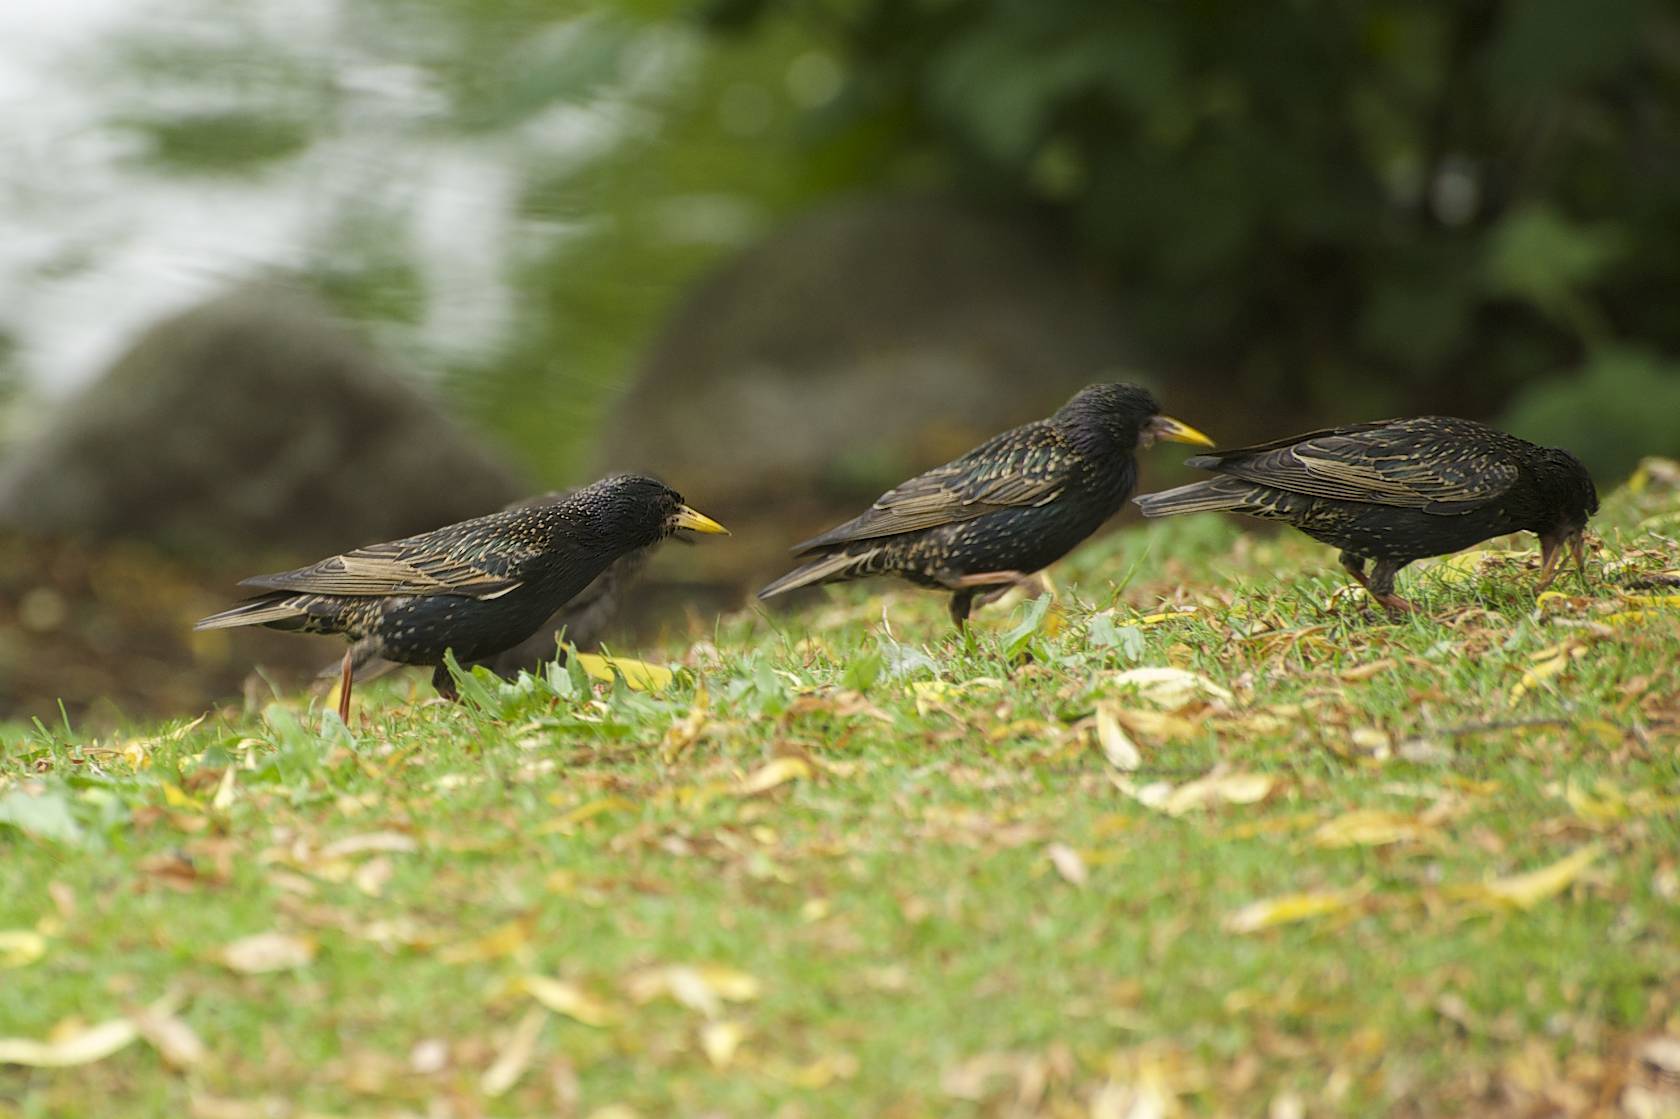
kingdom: Animalia
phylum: Chordata
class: Aves
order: Passeriformes
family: Sturnidae
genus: Sturnus
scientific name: Sturnus vulgaris
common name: Common starling
